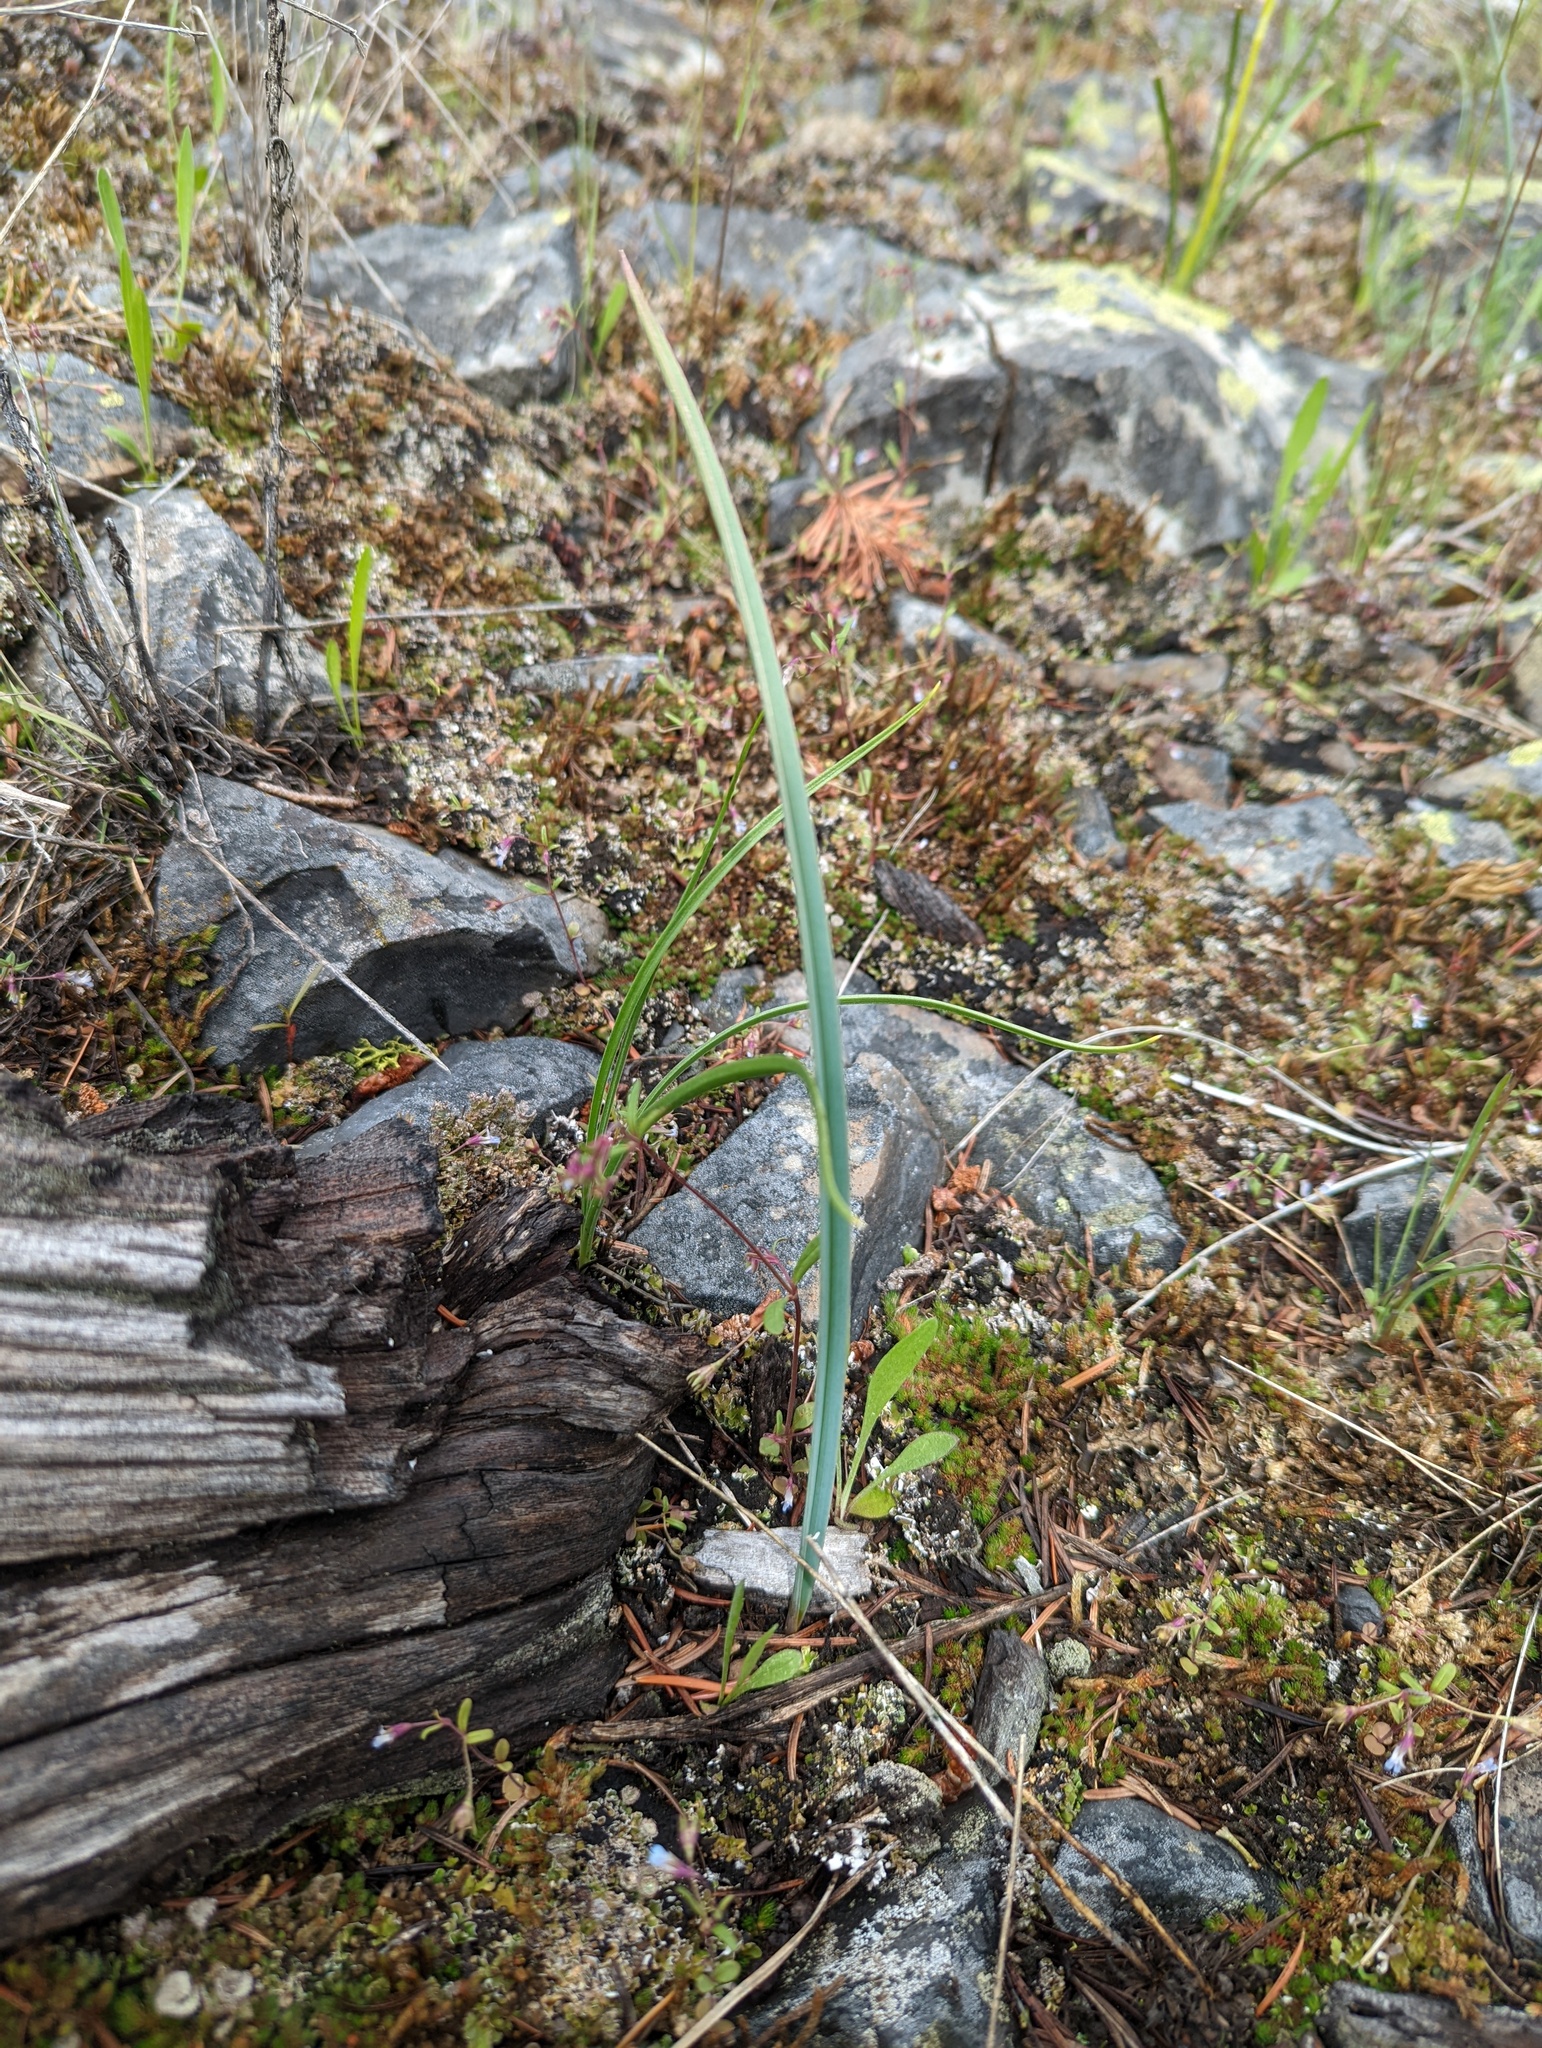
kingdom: Plantae
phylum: Tracheophyta
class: Liliopsida
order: Liliales
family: Liliaceae
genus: Calochortus
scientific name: Calochortus macrocarpus
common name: Green-band mariposa lily
